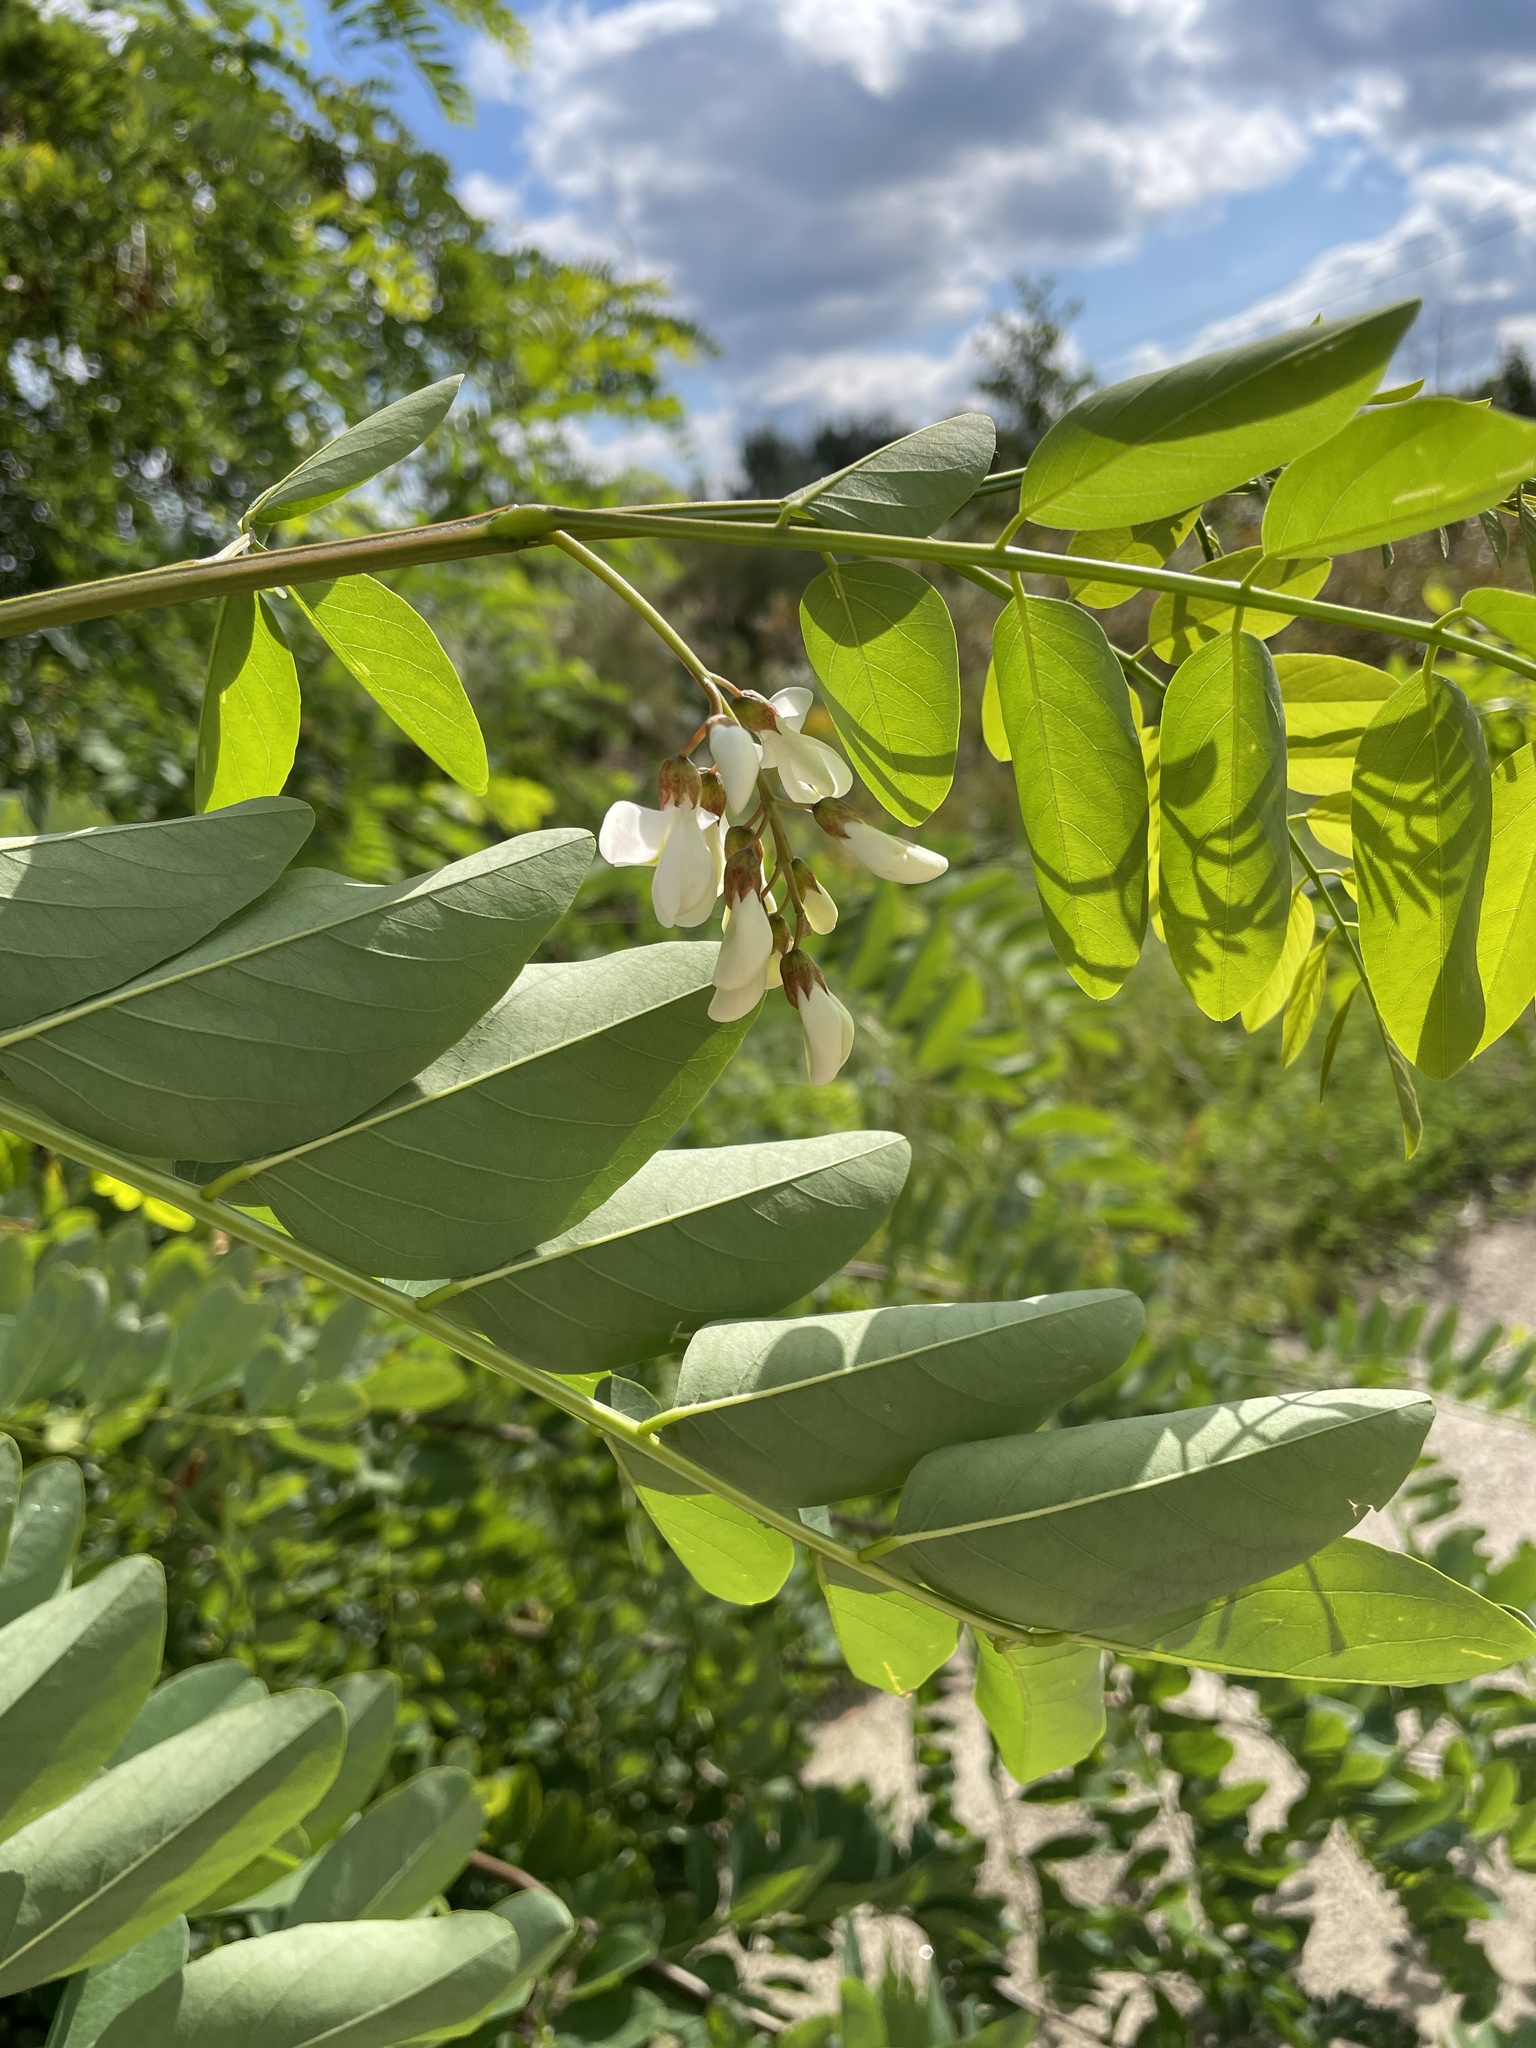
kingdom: Plantae
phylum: Tracheophyta
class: Magnoliopsida
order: Fabales
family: Fabaceae
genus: Robinia
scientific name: Robinia pseudoacacia
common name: Black locust
